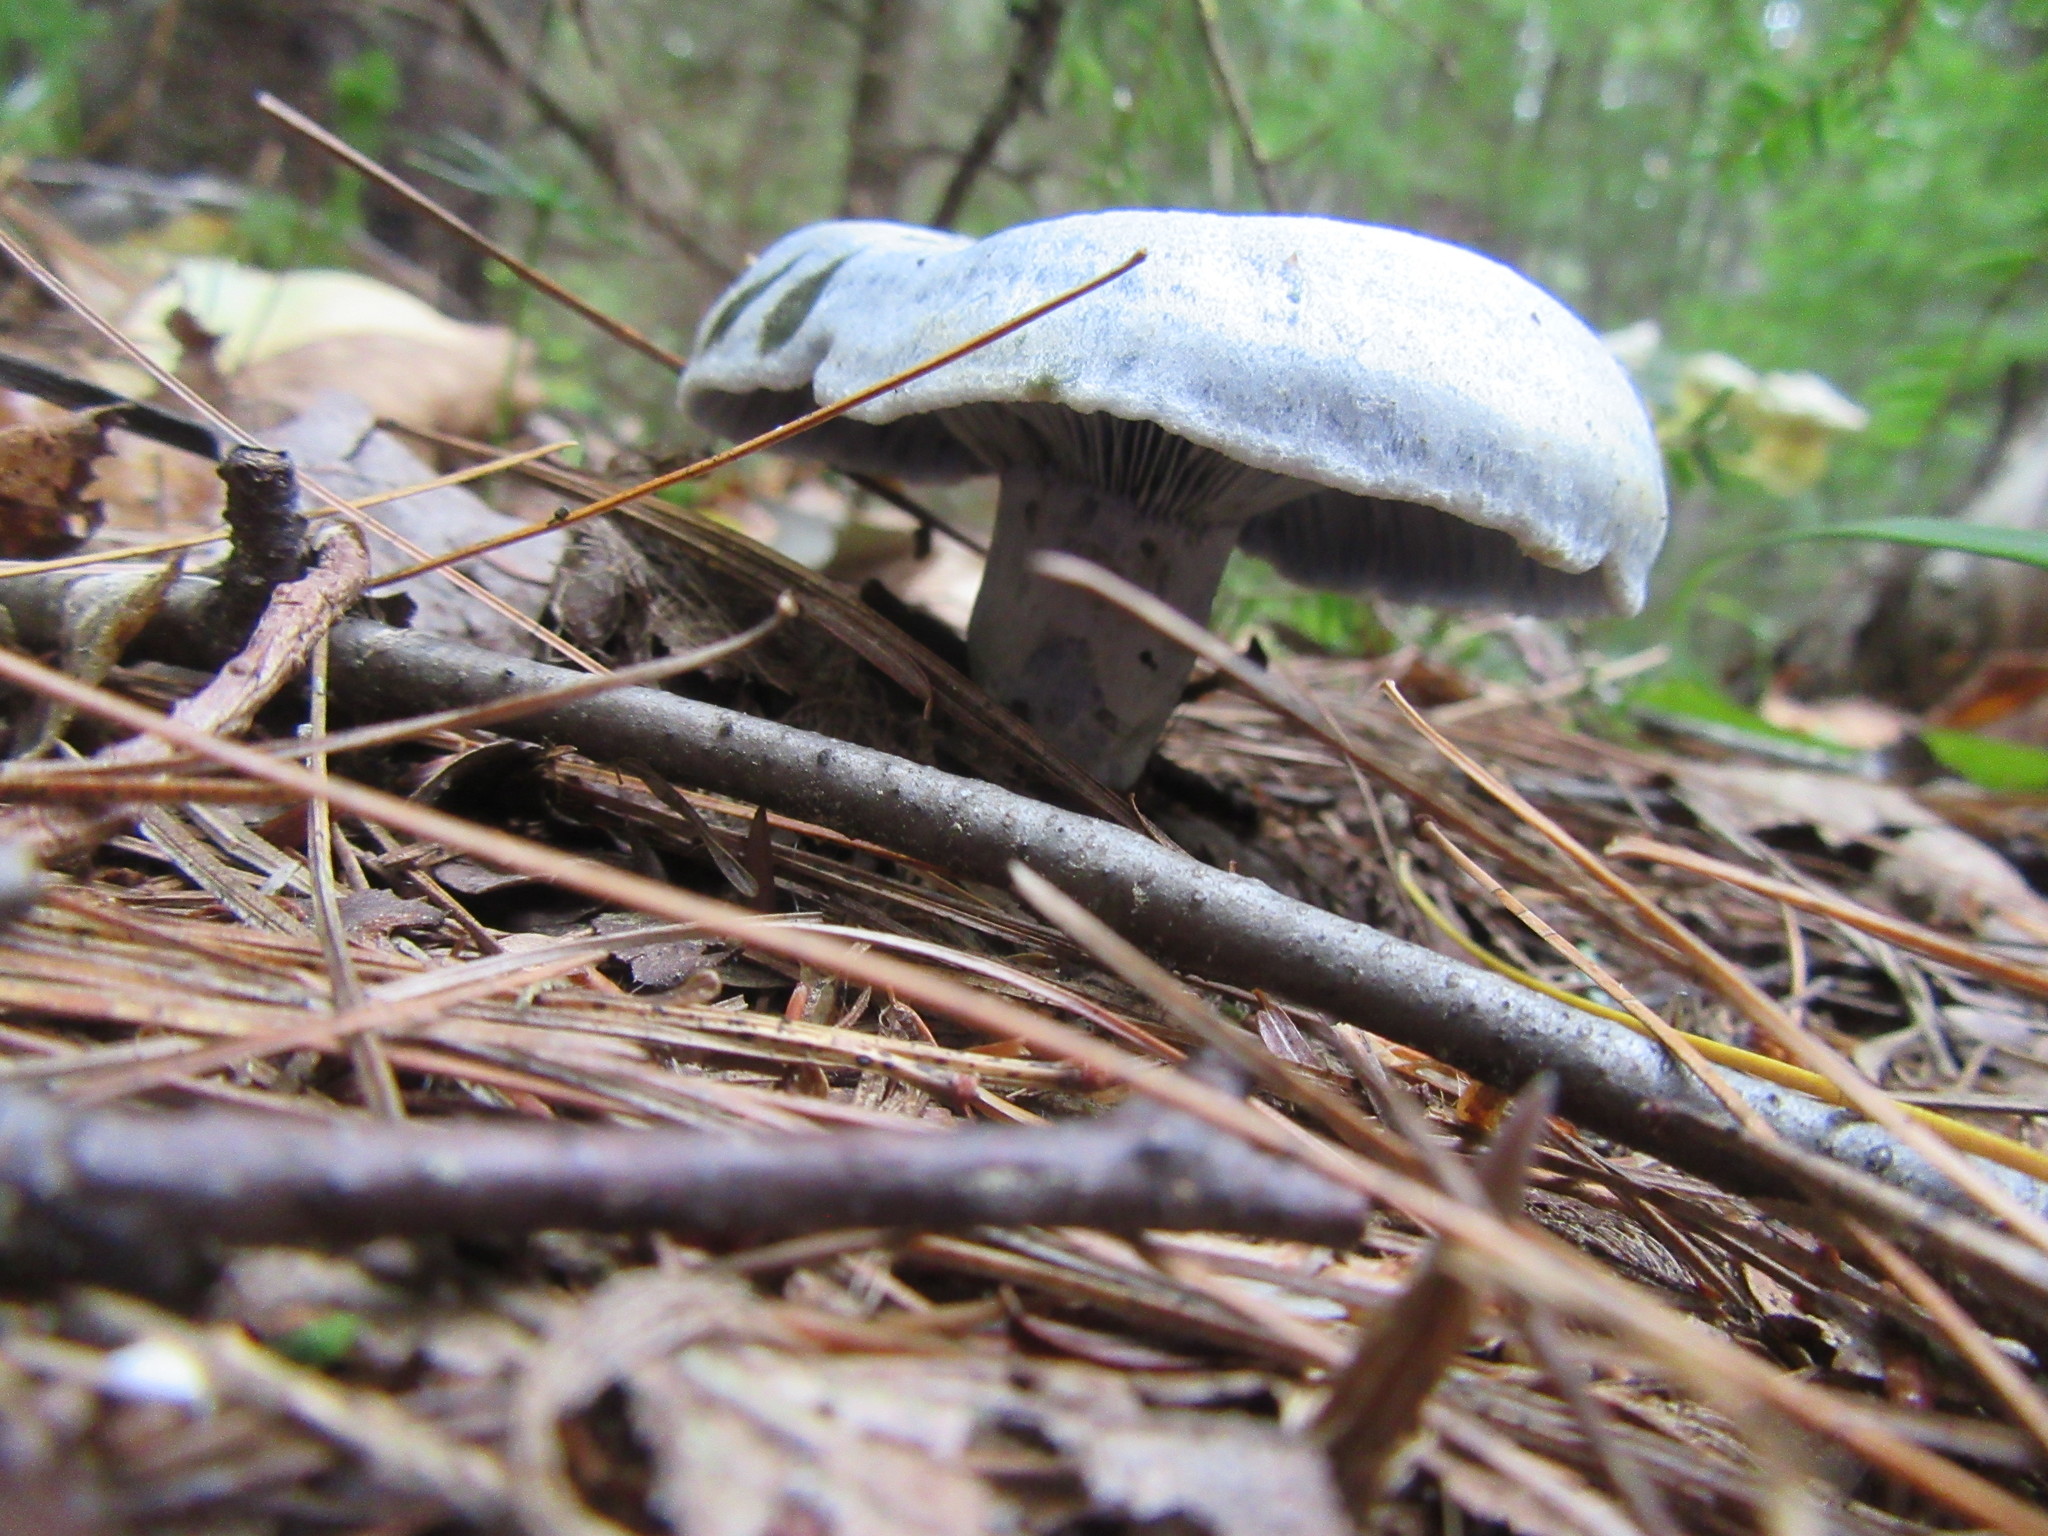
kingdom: Fungi
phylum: Basidiomycota
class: Agaricomycetes
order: Russulales
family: Russulaceae
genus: Lactarius
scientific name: Lactarius indigo
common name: Indigo milk cap
